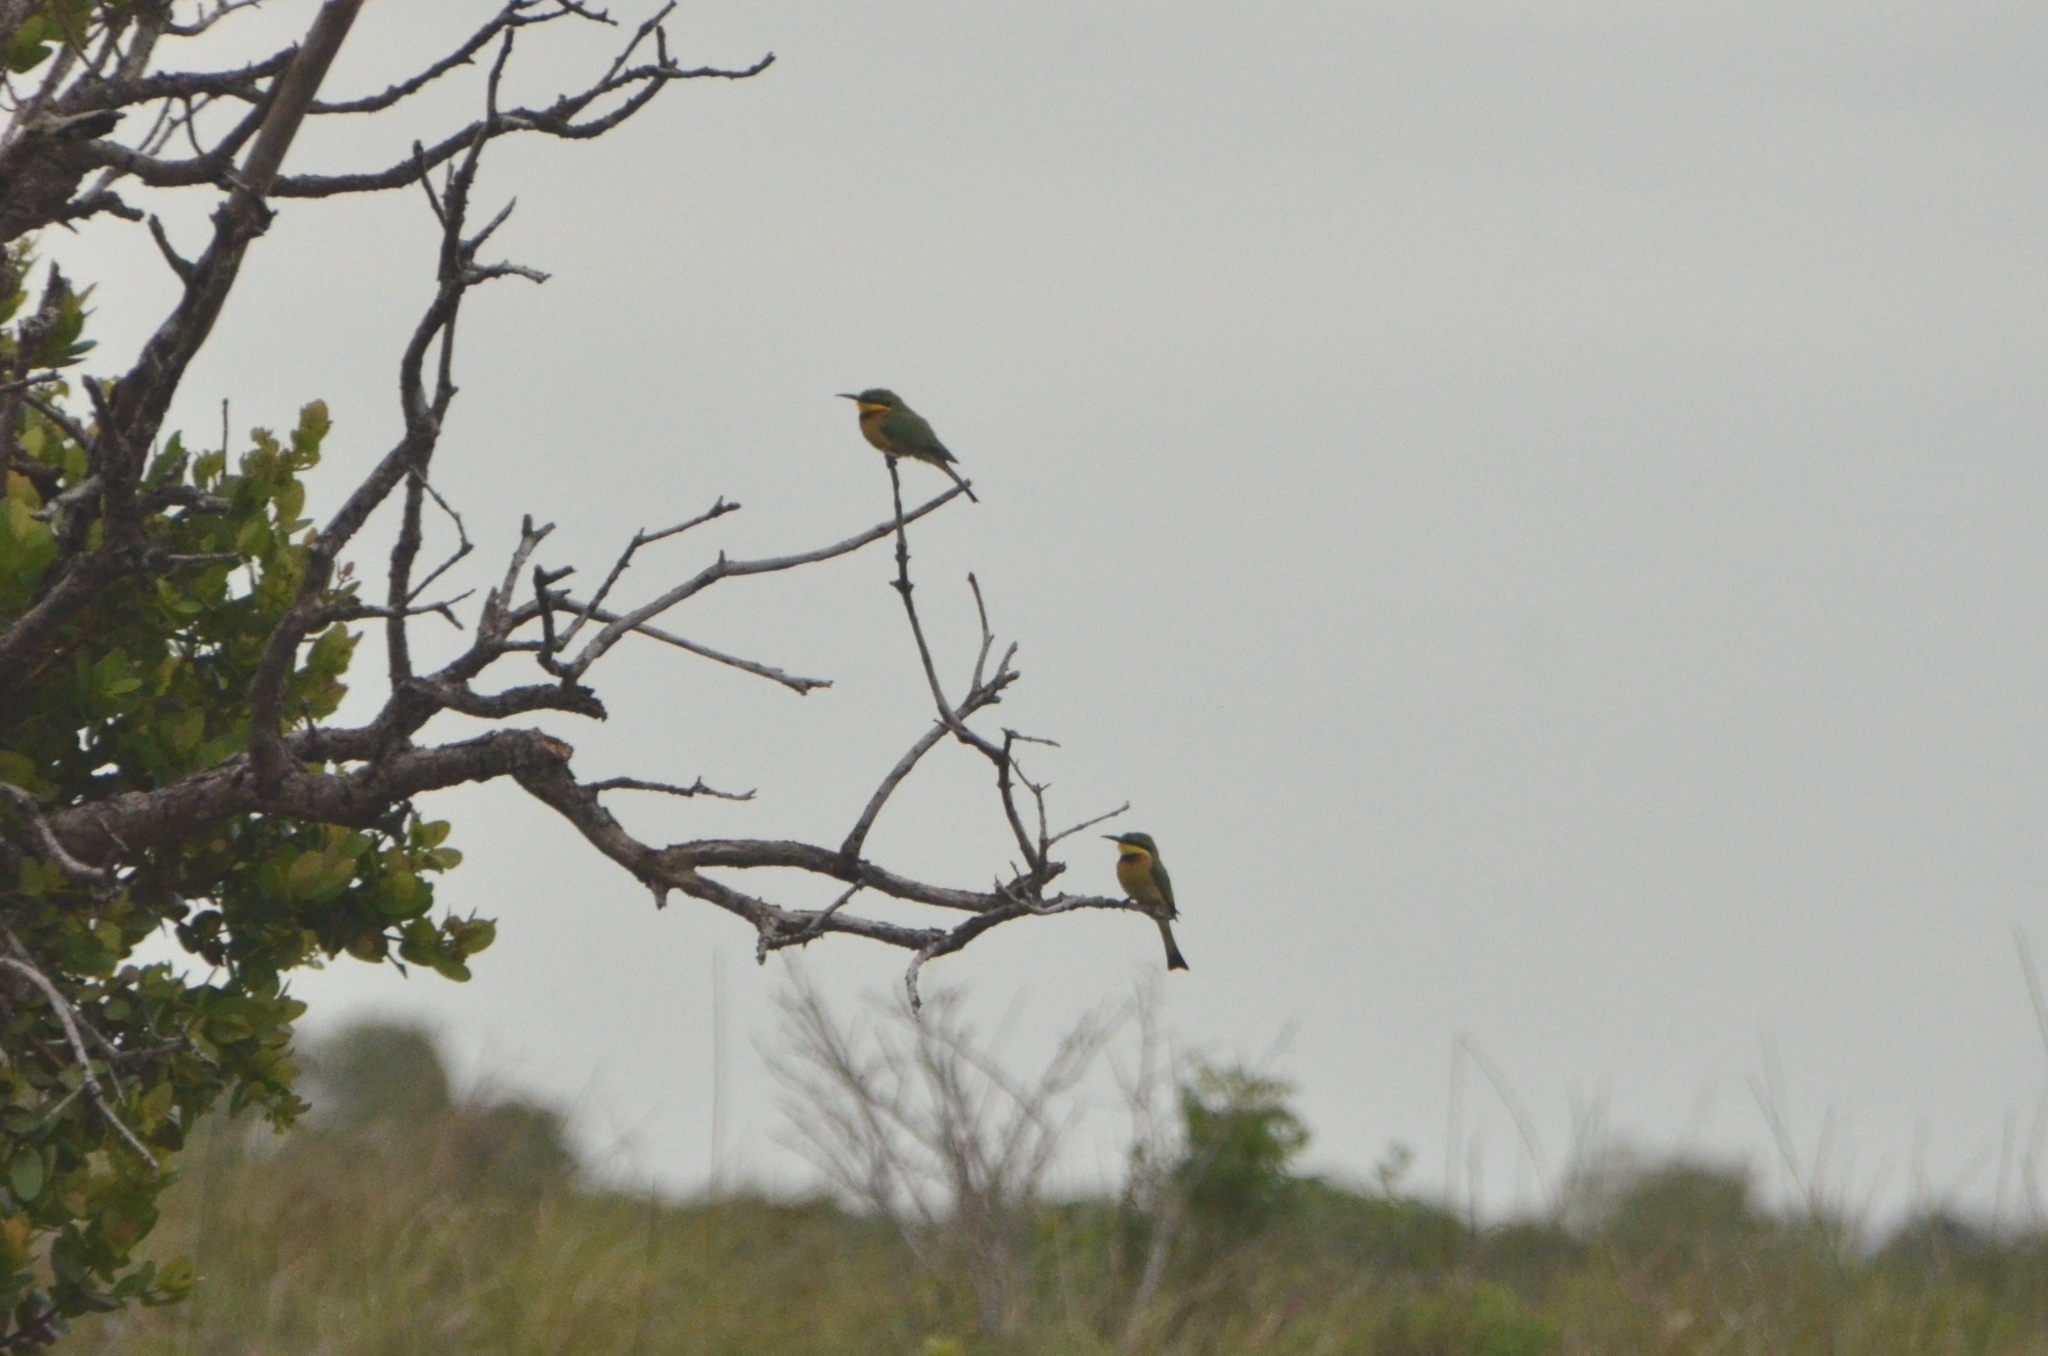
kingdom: Animalia
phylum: Chordata
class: Aves
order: Coraciiformes
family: Meropidae
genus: Merops
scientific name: Merops pusillus
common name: Little bee-eater
